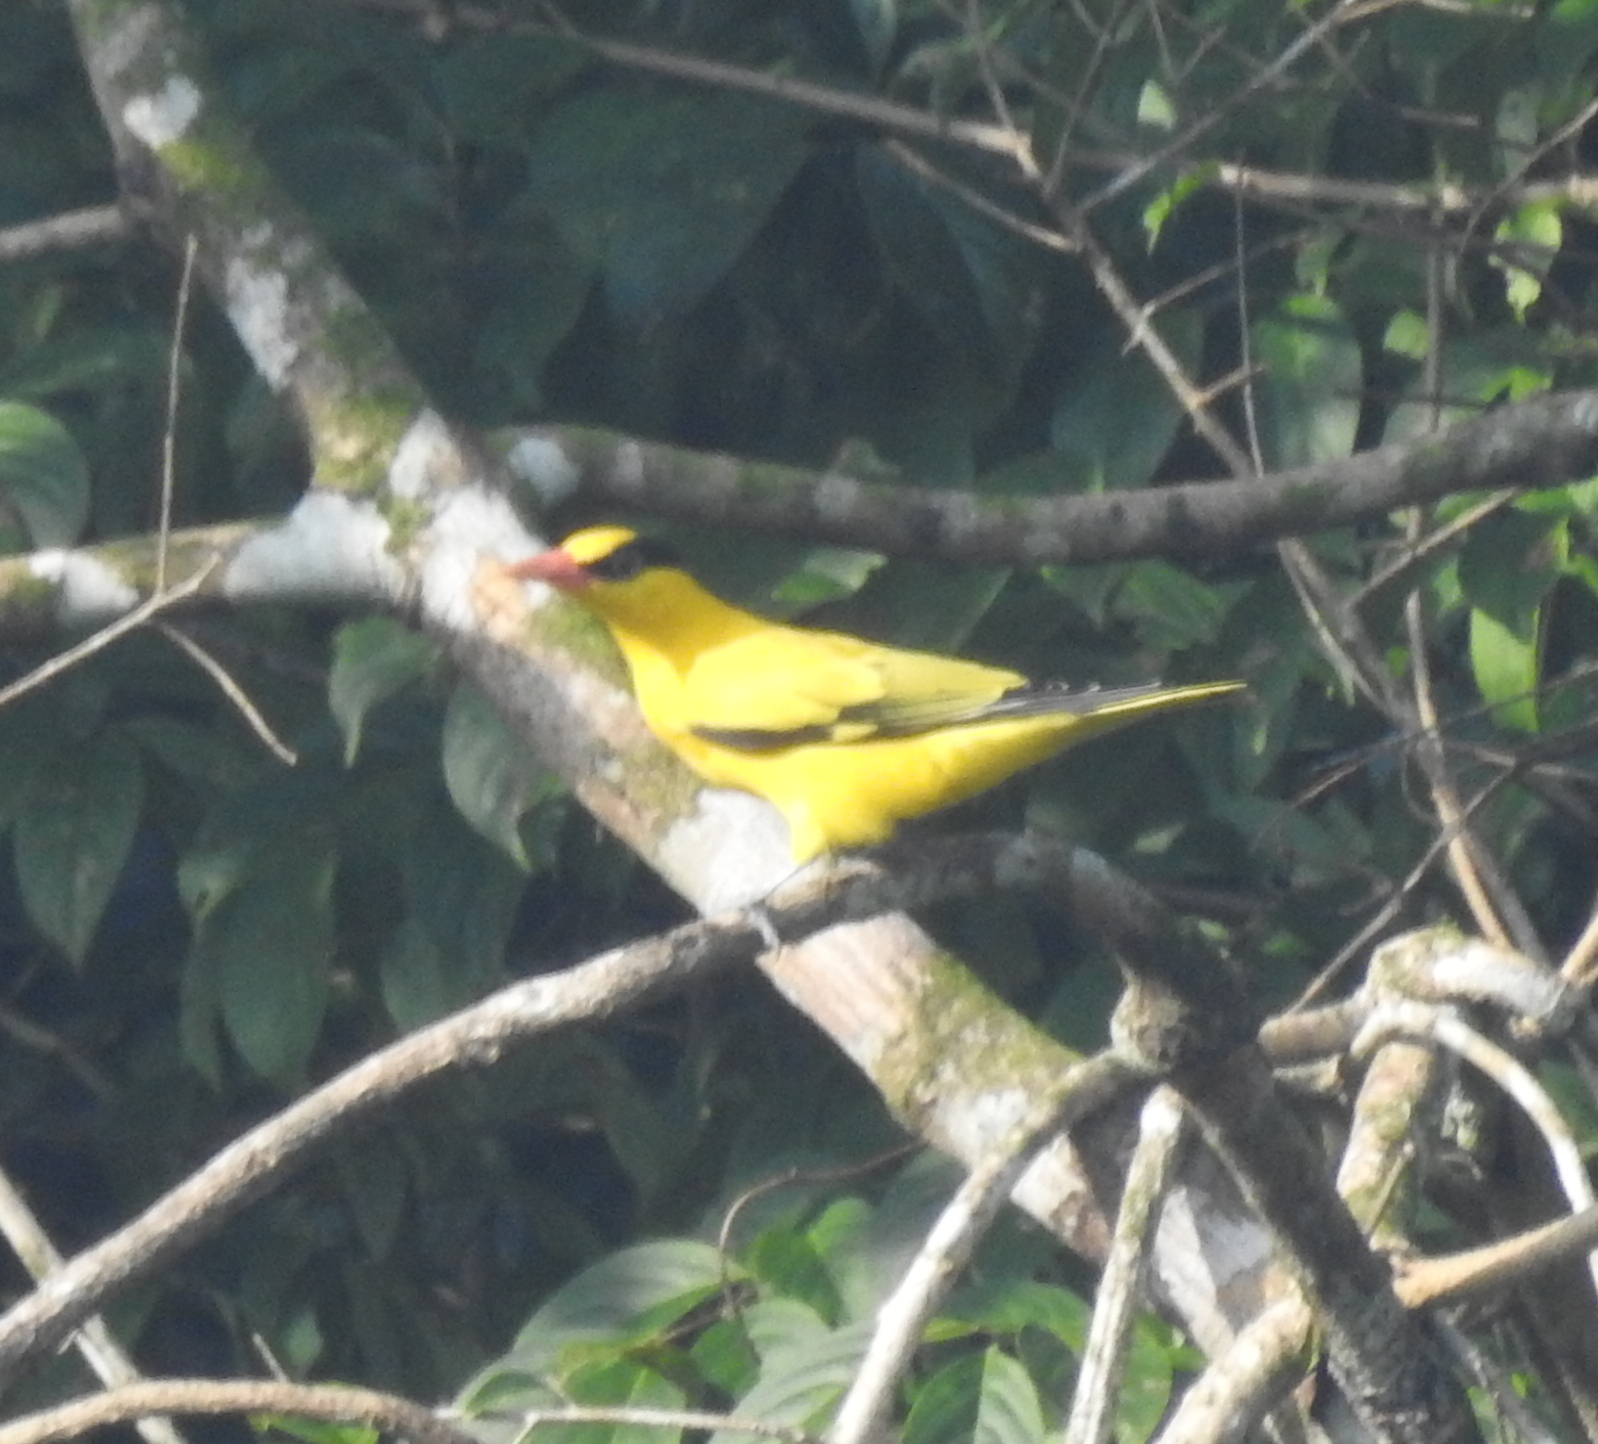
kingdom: Animalia
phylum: Chordata
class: Aves
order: Passeriformes
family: Oriolidae
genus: Oriolus
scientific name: Oriolus chinensis
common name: Black-naped oriole
